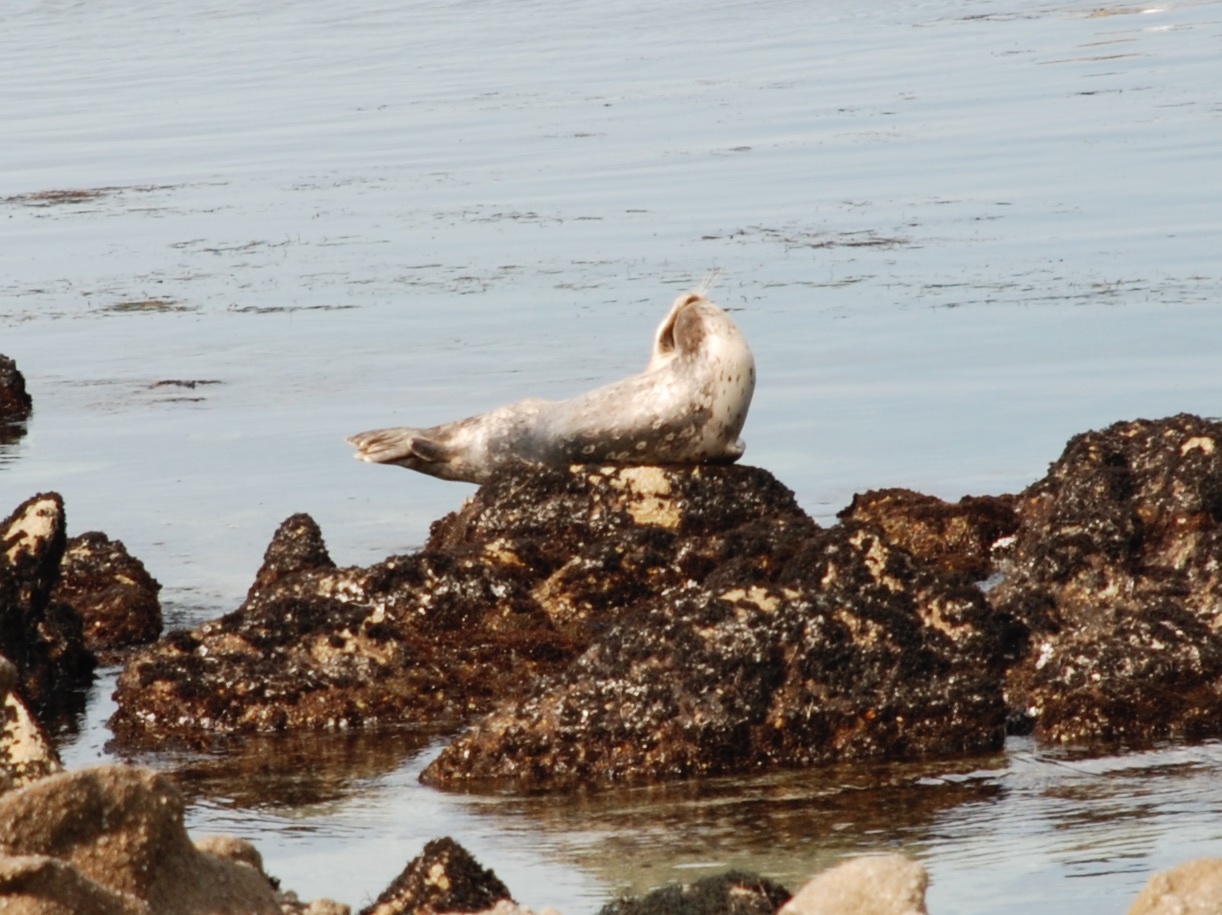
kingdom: Animalia
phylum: Chordata
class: Mammalia
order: Carnivora
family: Phocidae
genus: Phoca
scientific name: Phoca vitulina
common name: Harbor seal
